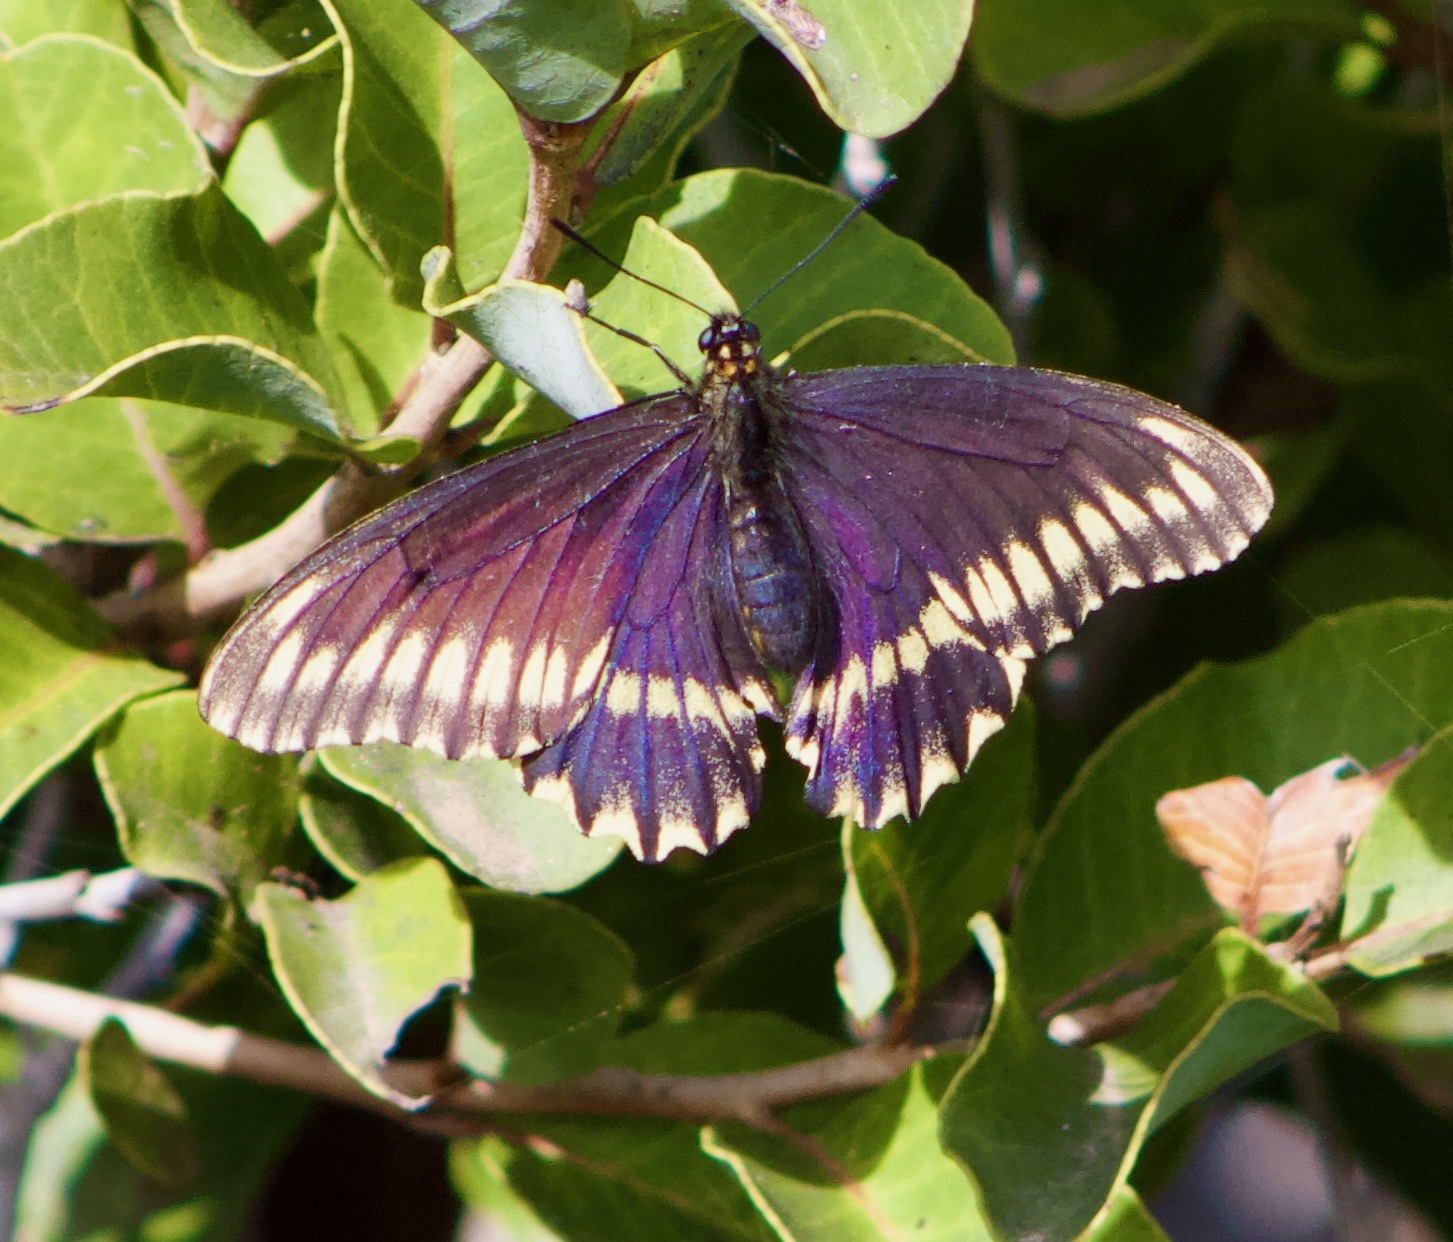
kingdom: Animalia
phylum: Arthropoda
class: Insecta
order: Lepidoptera
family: Papilionidae
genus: Battus
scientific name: Battus polydamas
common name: Polydamas swallowtail
